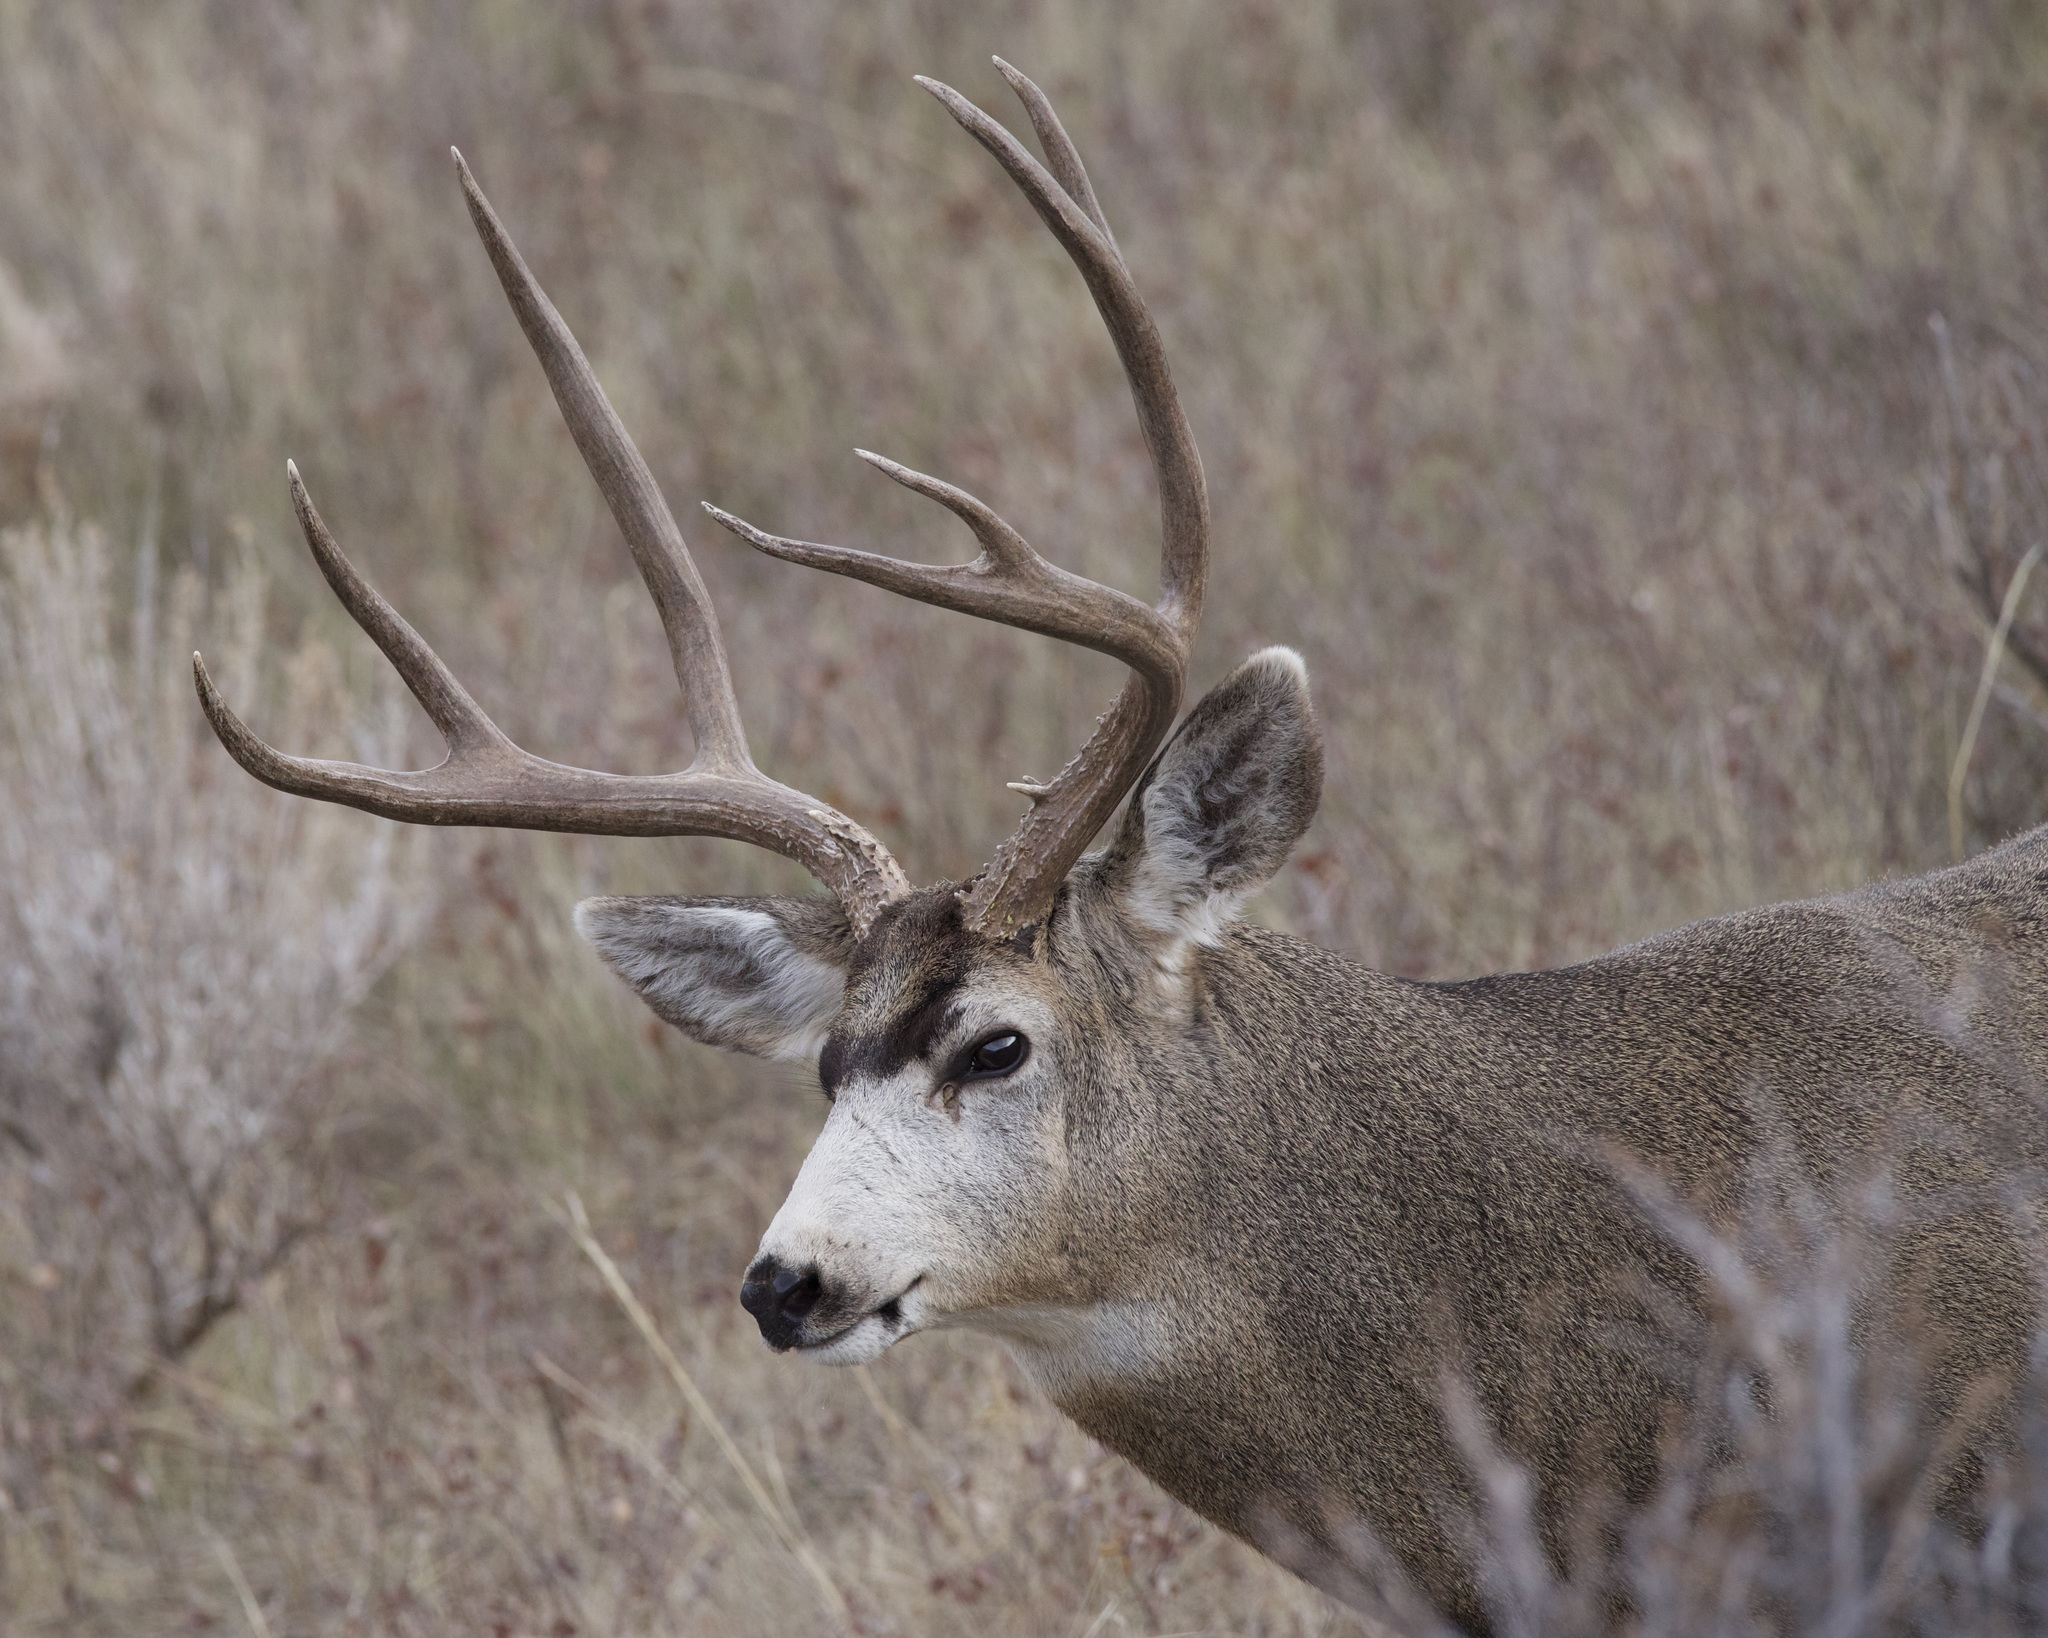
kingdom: Animalia
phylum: Chordata
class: Mammalia
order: Artiodactyla
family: Cervidae
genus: Odocoileus
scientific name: Odocoileus hemionus
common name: Mule deer
